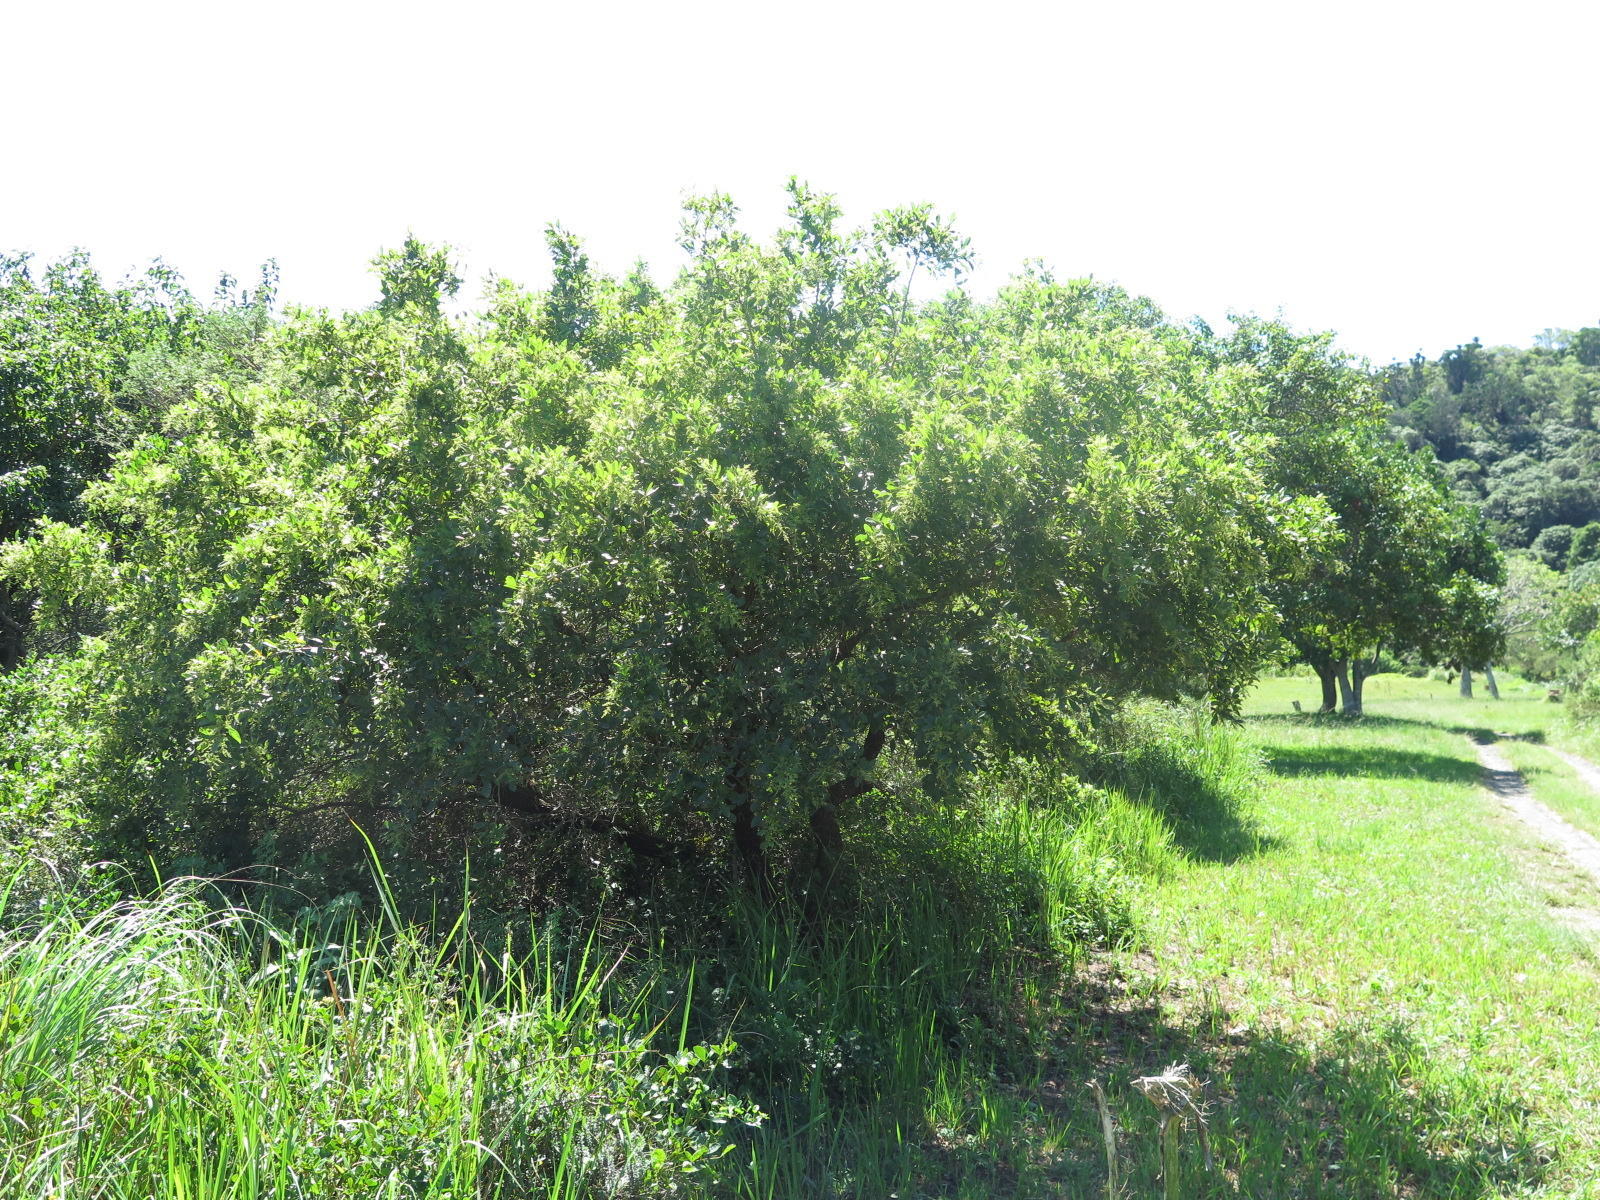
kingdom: Plantae
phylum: Tracheophyta
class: Magnoliopsida
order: Sapindales
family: Anacardiaceae
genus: Searsia
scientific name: Searsia pyroides
